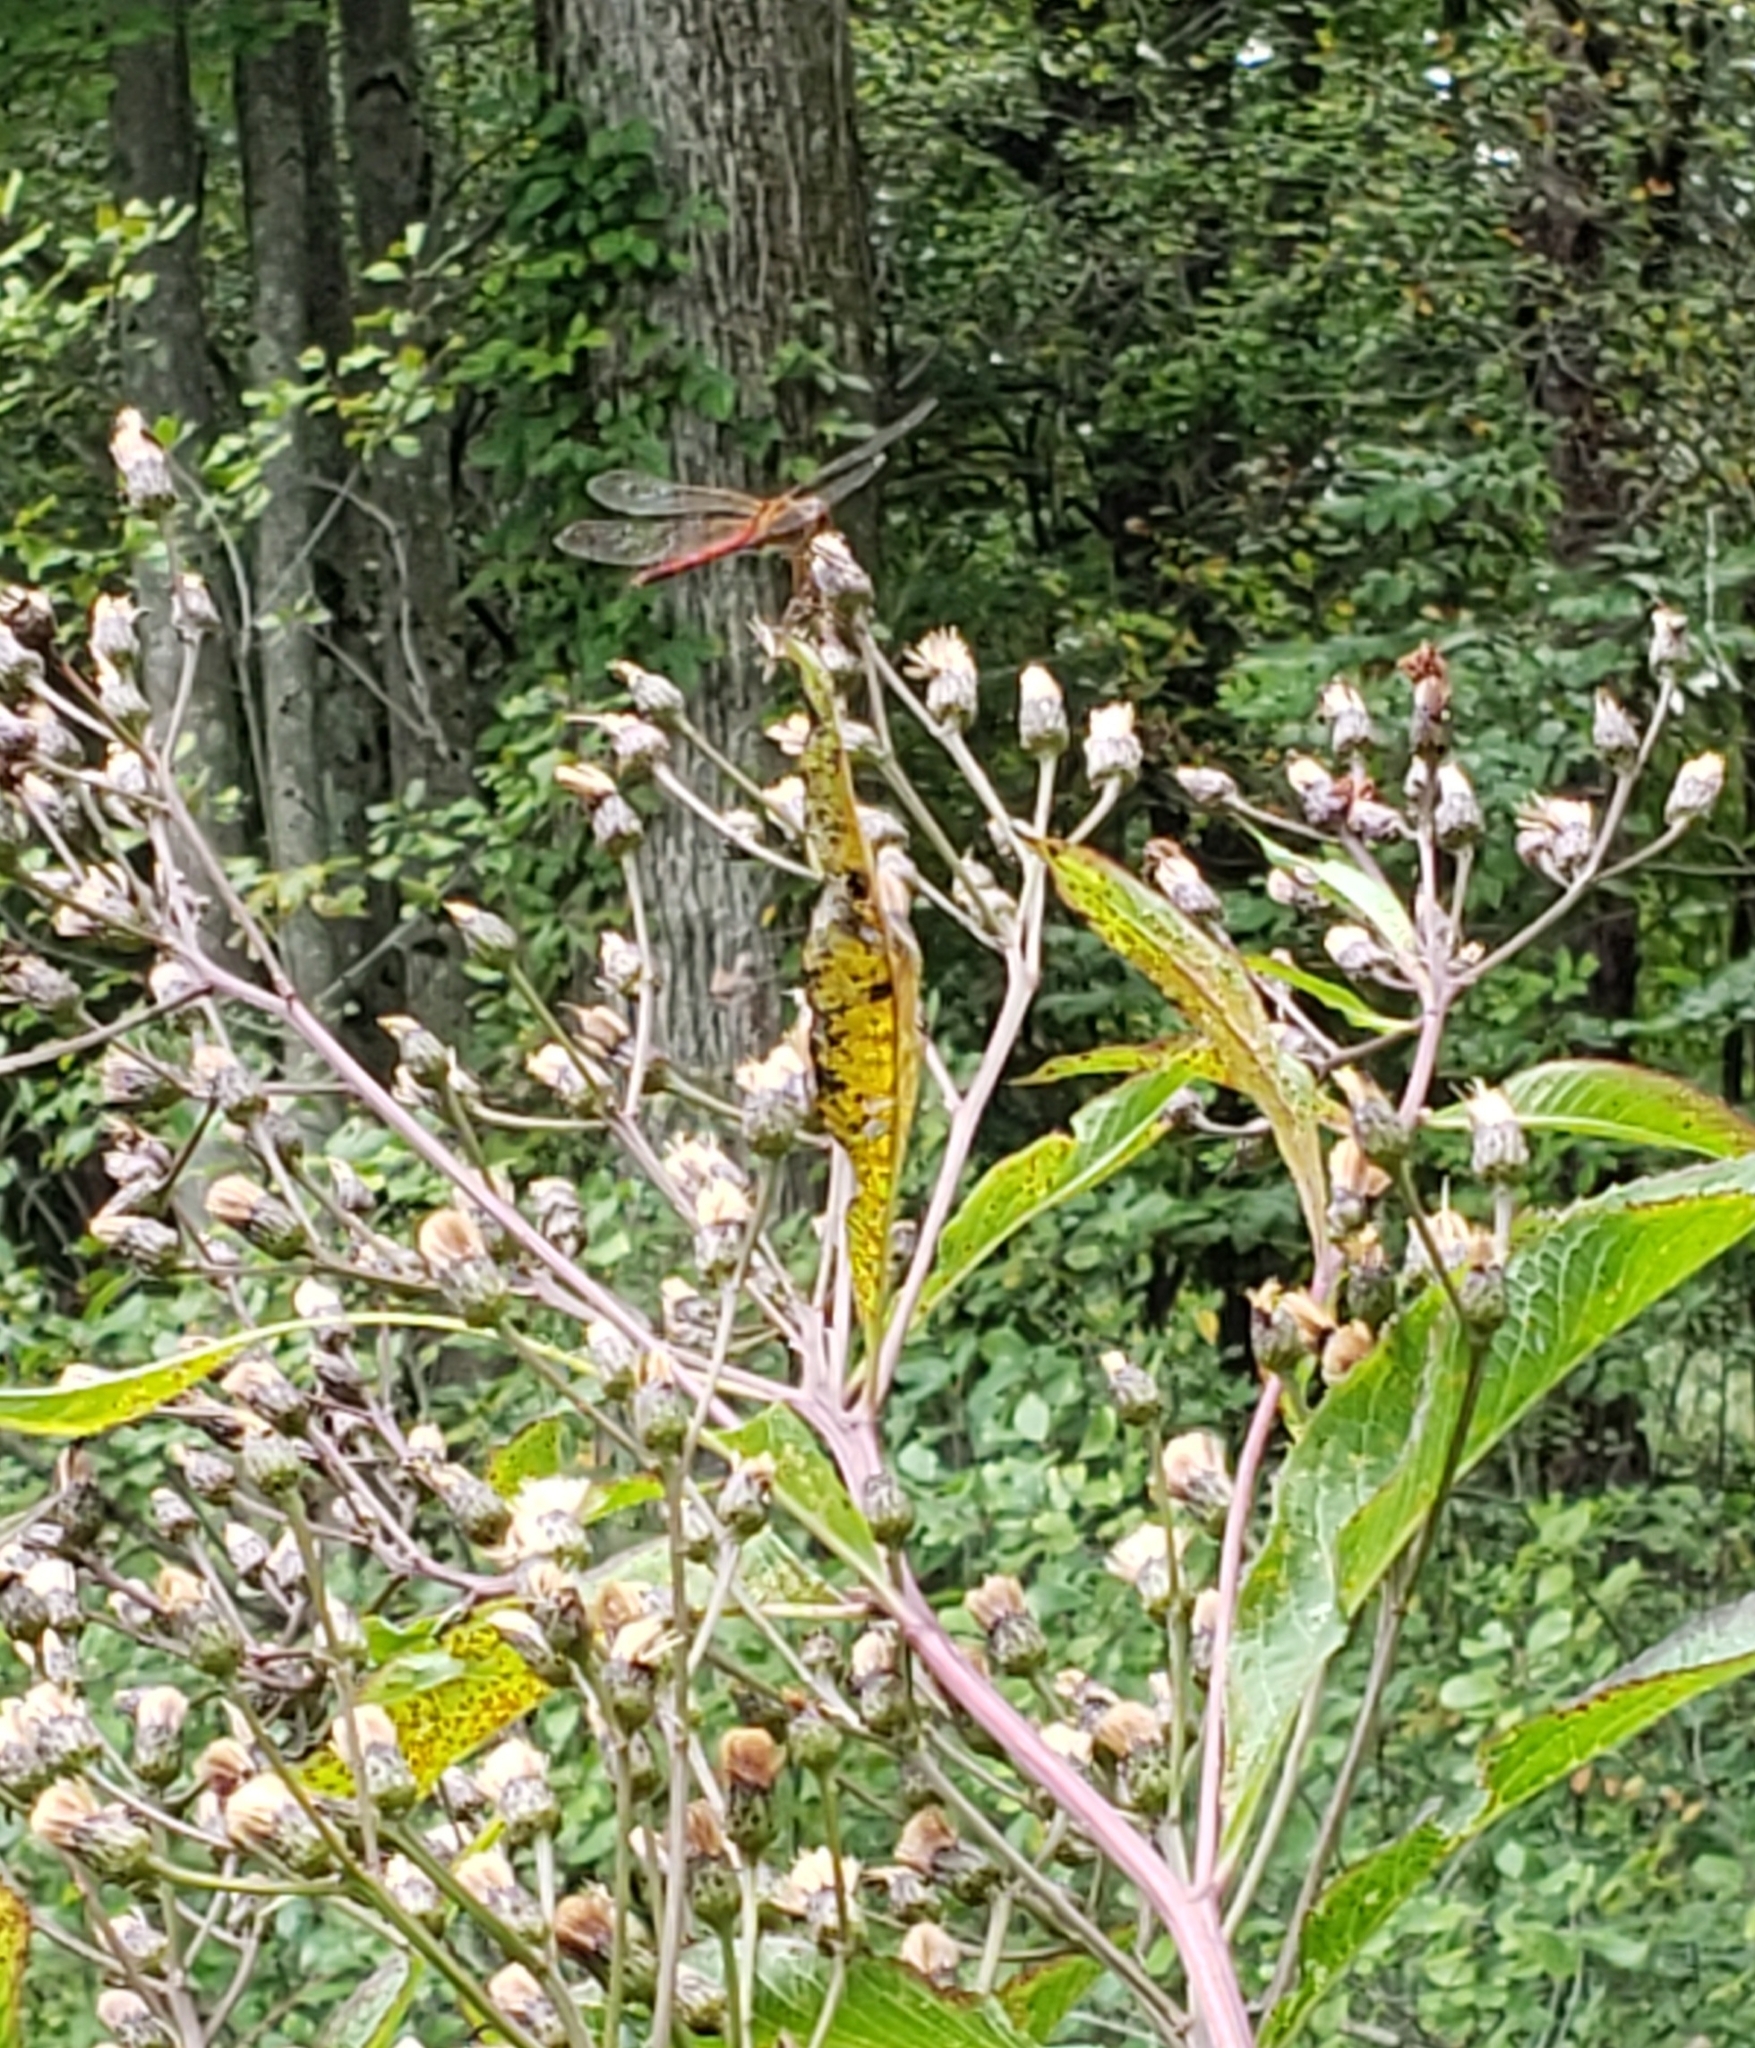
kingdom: Animalia
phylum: Arthropoda
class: Insecta
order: Odonata
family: Libellulidae
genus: Sympetrum
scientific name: Sympetrum vicinum
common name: Autumn meadowhawk
